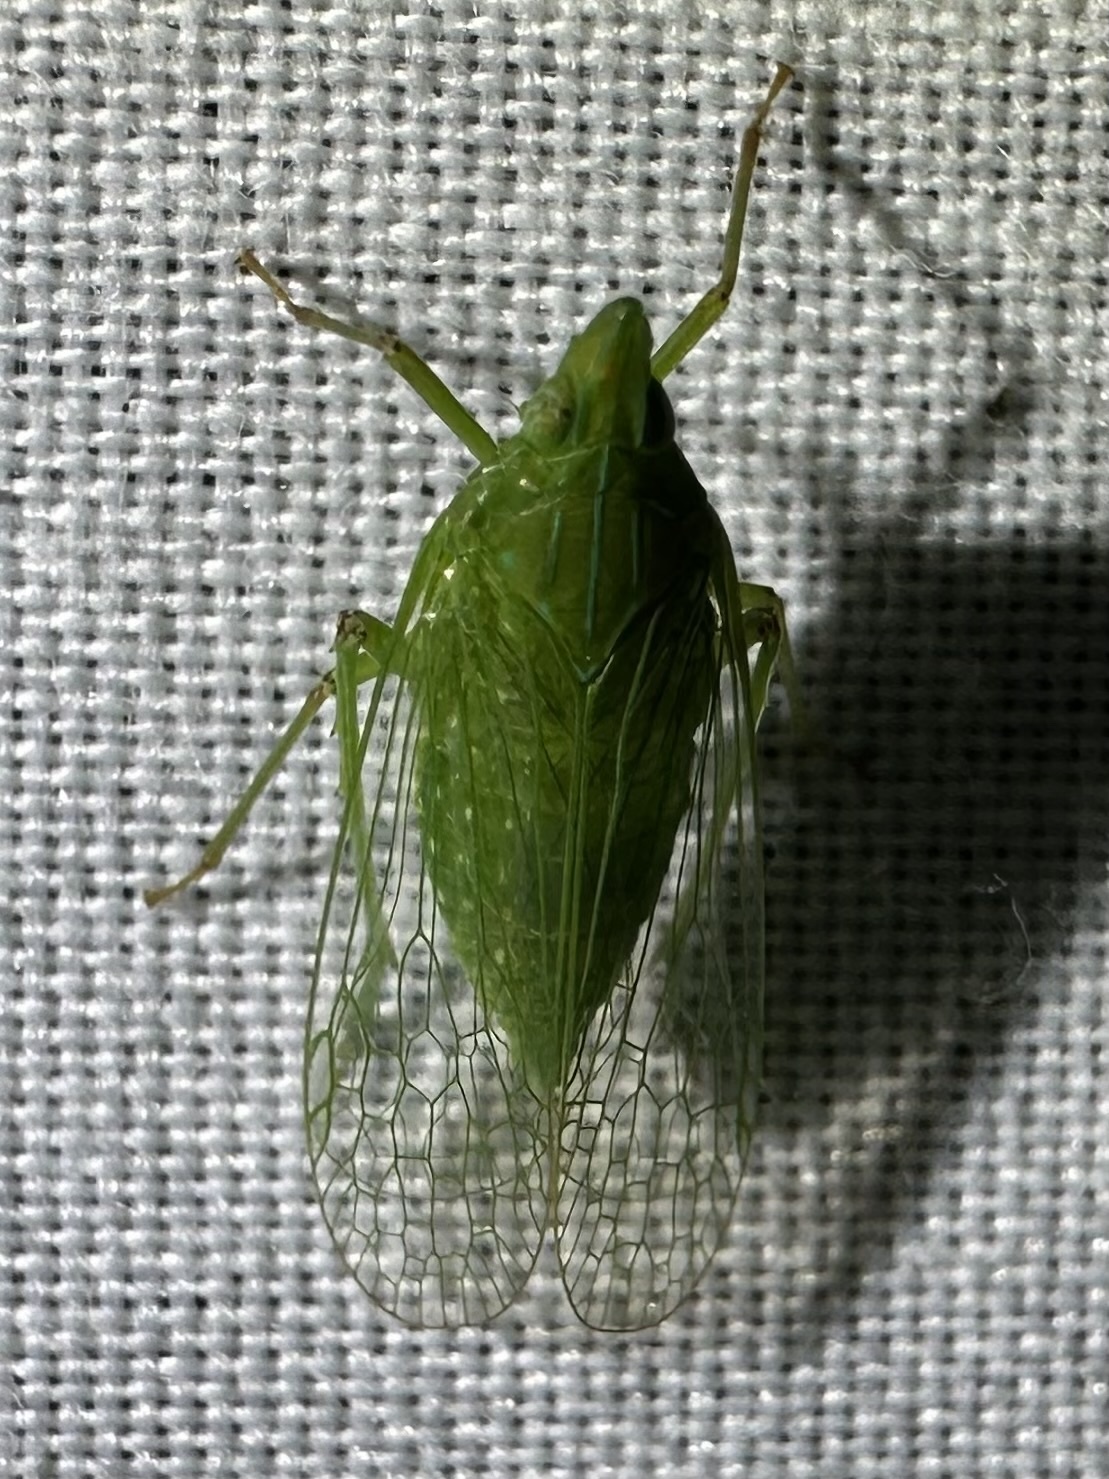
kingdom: Animalia
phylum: Arthropoda
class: Insecta
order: Hemiptera
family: Dictyopharidae
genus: Pseudophanella
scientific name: Pseudophanella casta
